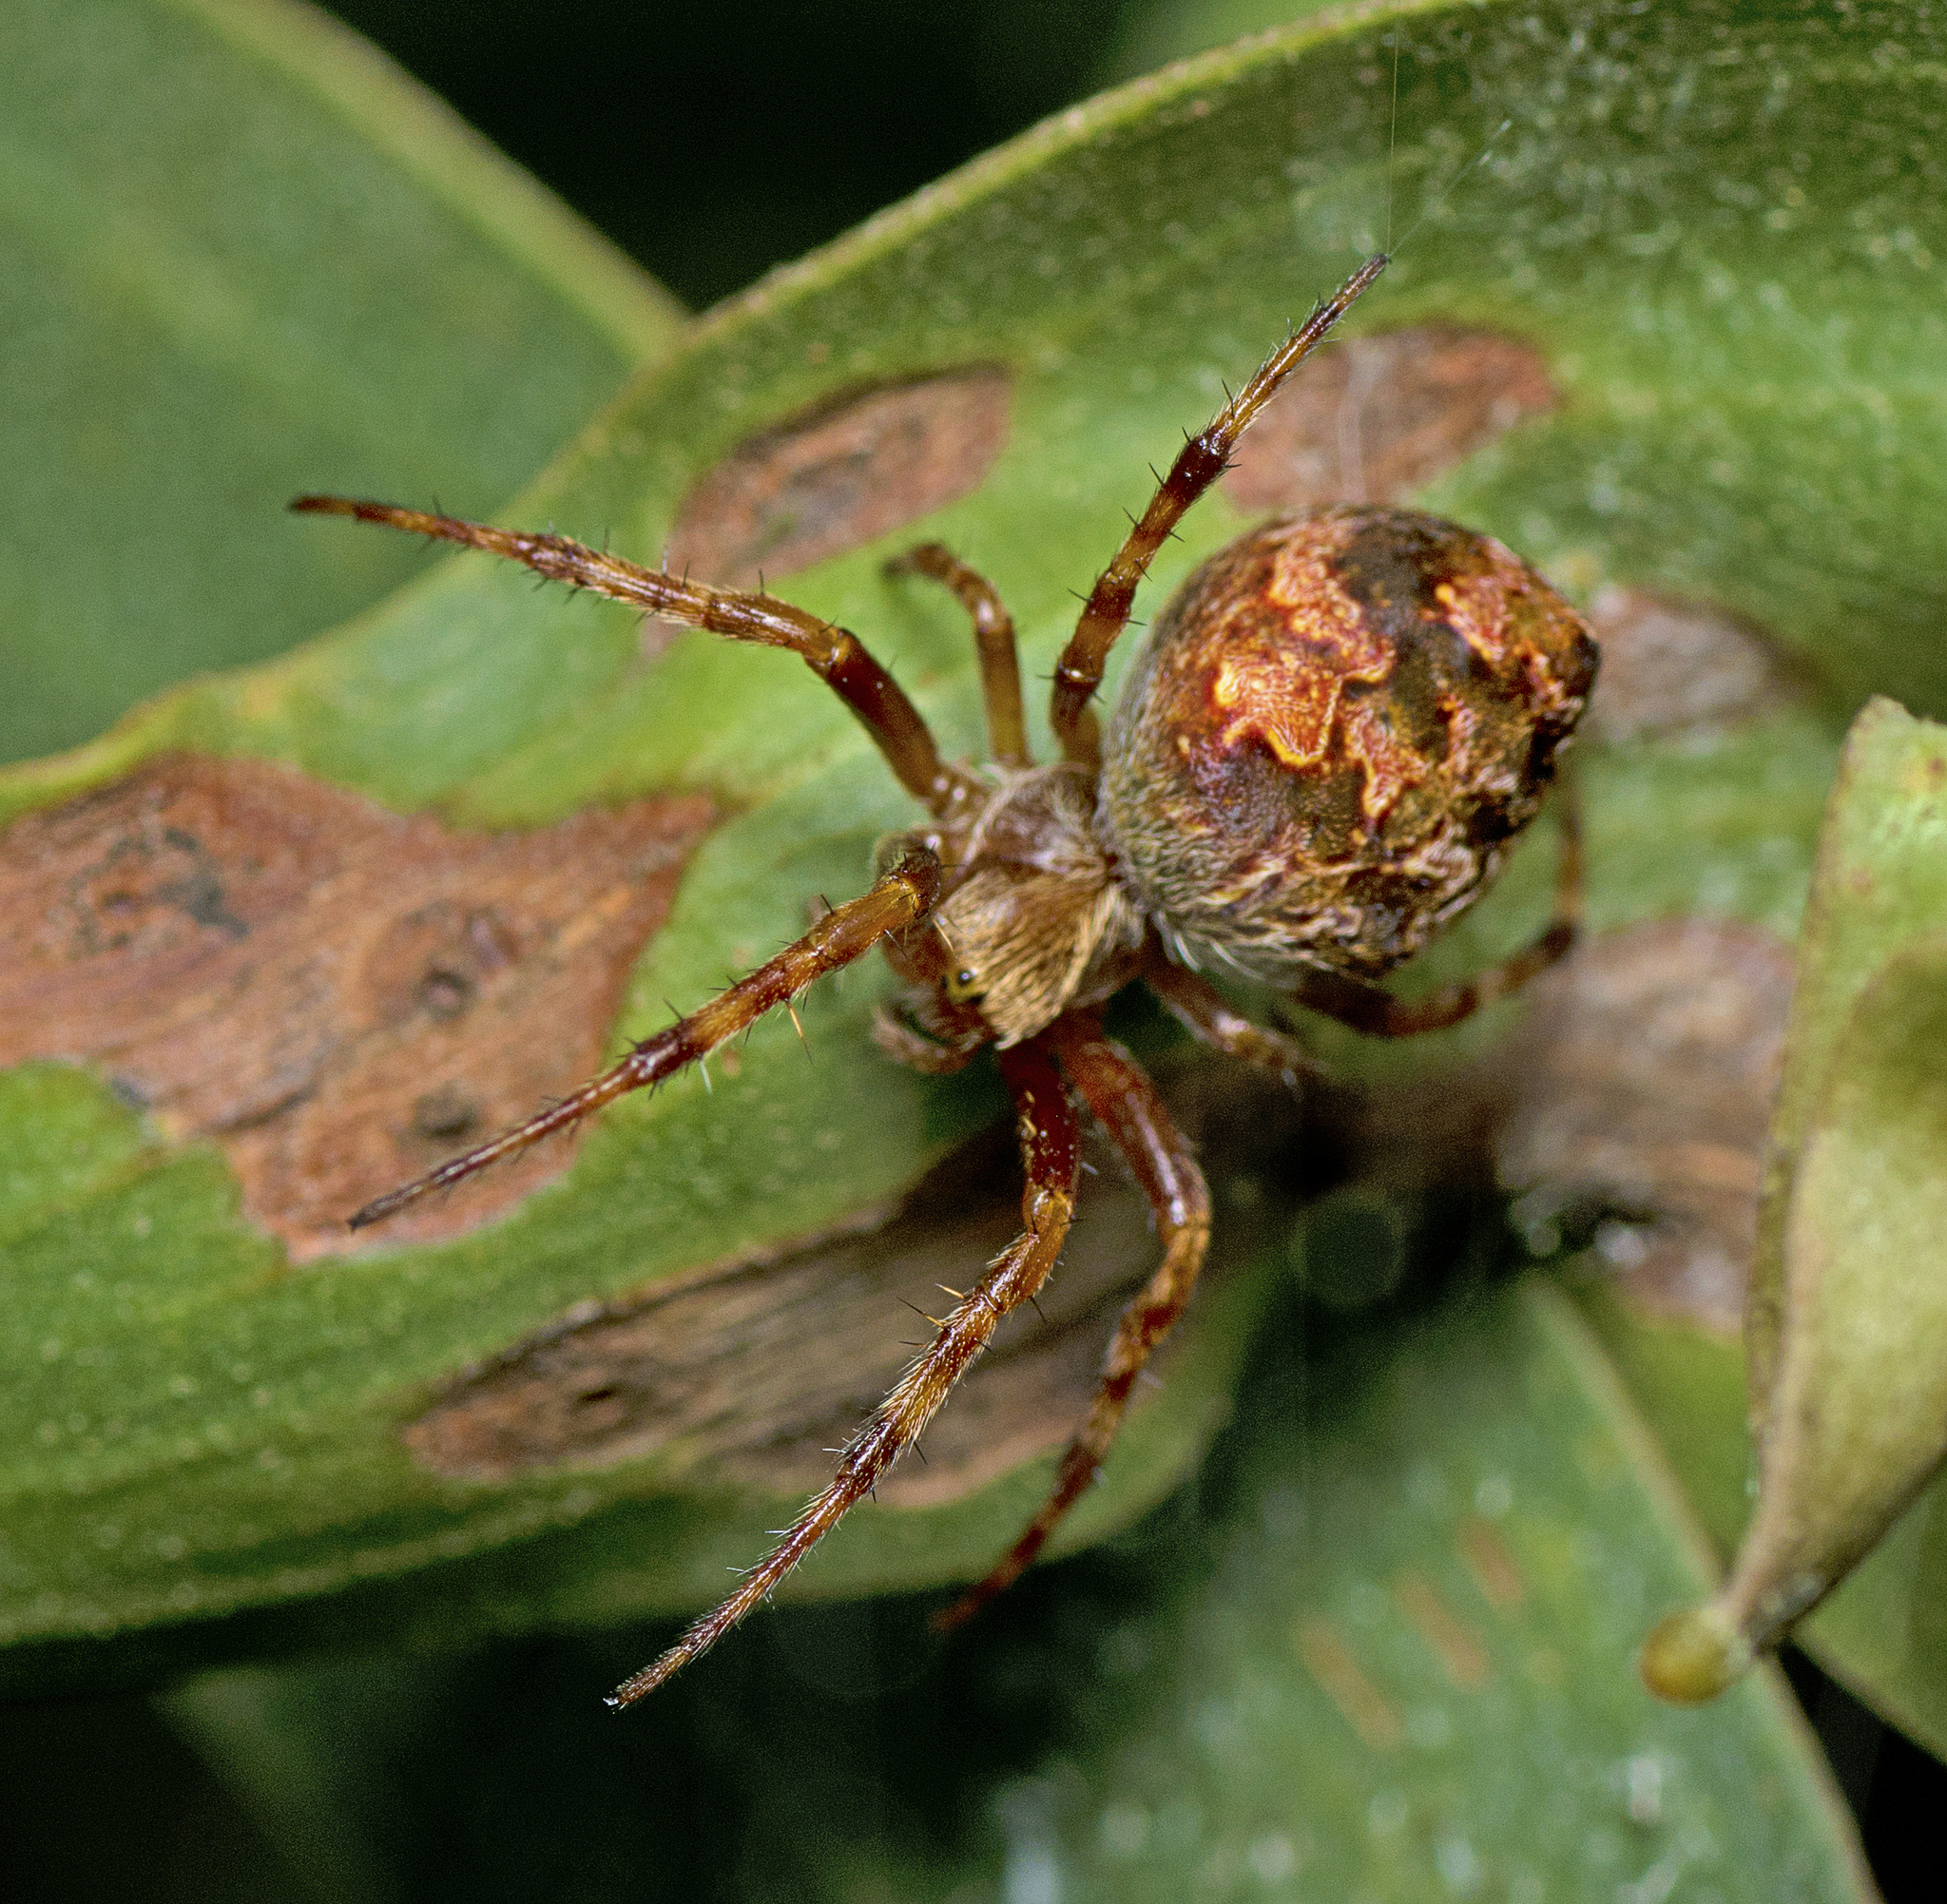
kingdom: Animalia
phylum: Arthropoda
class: Arachnida
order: Araneae
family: Araneidae
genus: Salsa
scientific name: Salsa brisbanae
